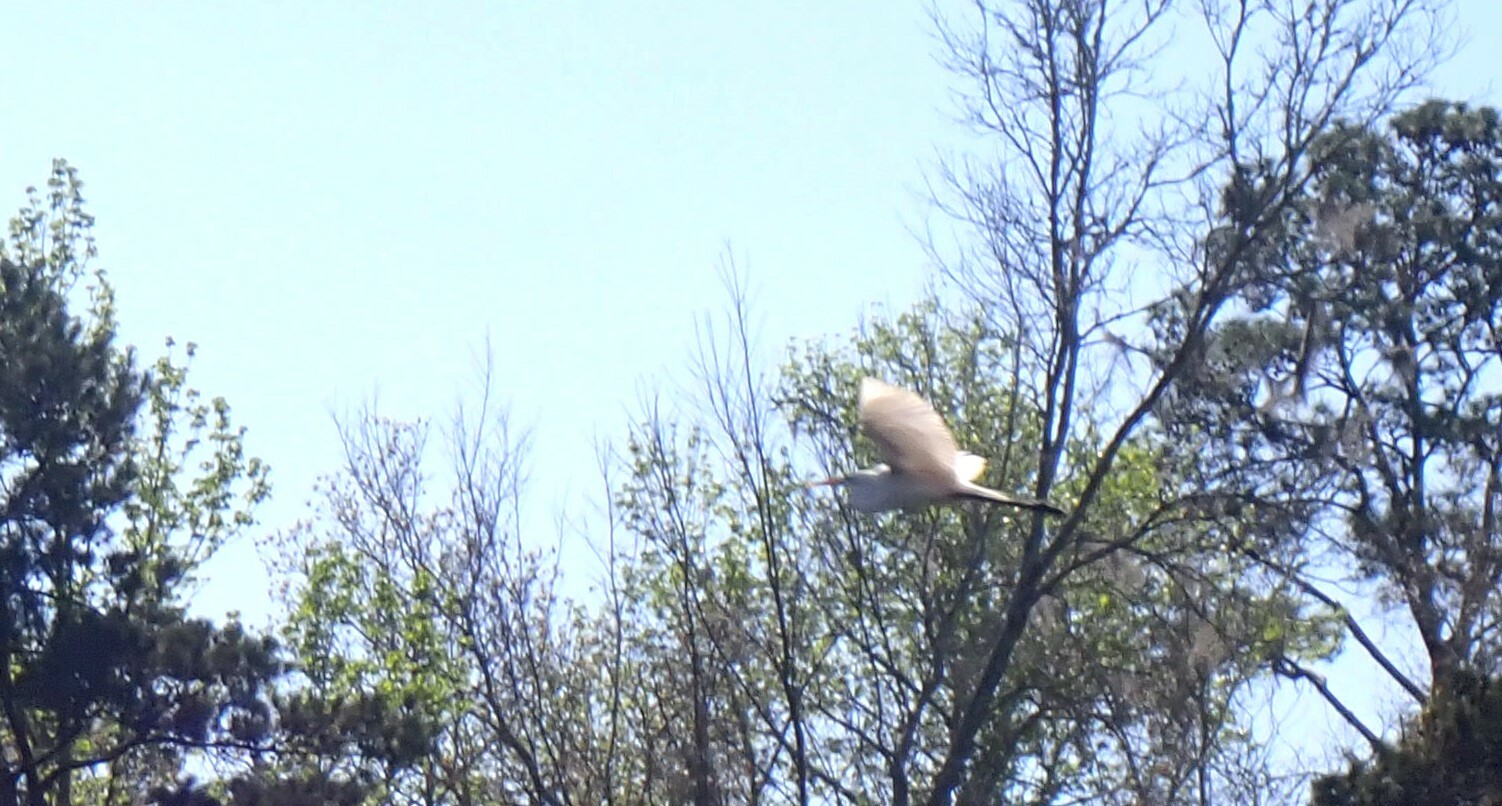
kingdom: Animalia
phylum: Chordata
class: Aves
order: Pelecaniformes
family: Ardeidae
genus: Ardea
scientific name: Ardea alba
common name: Great egret
